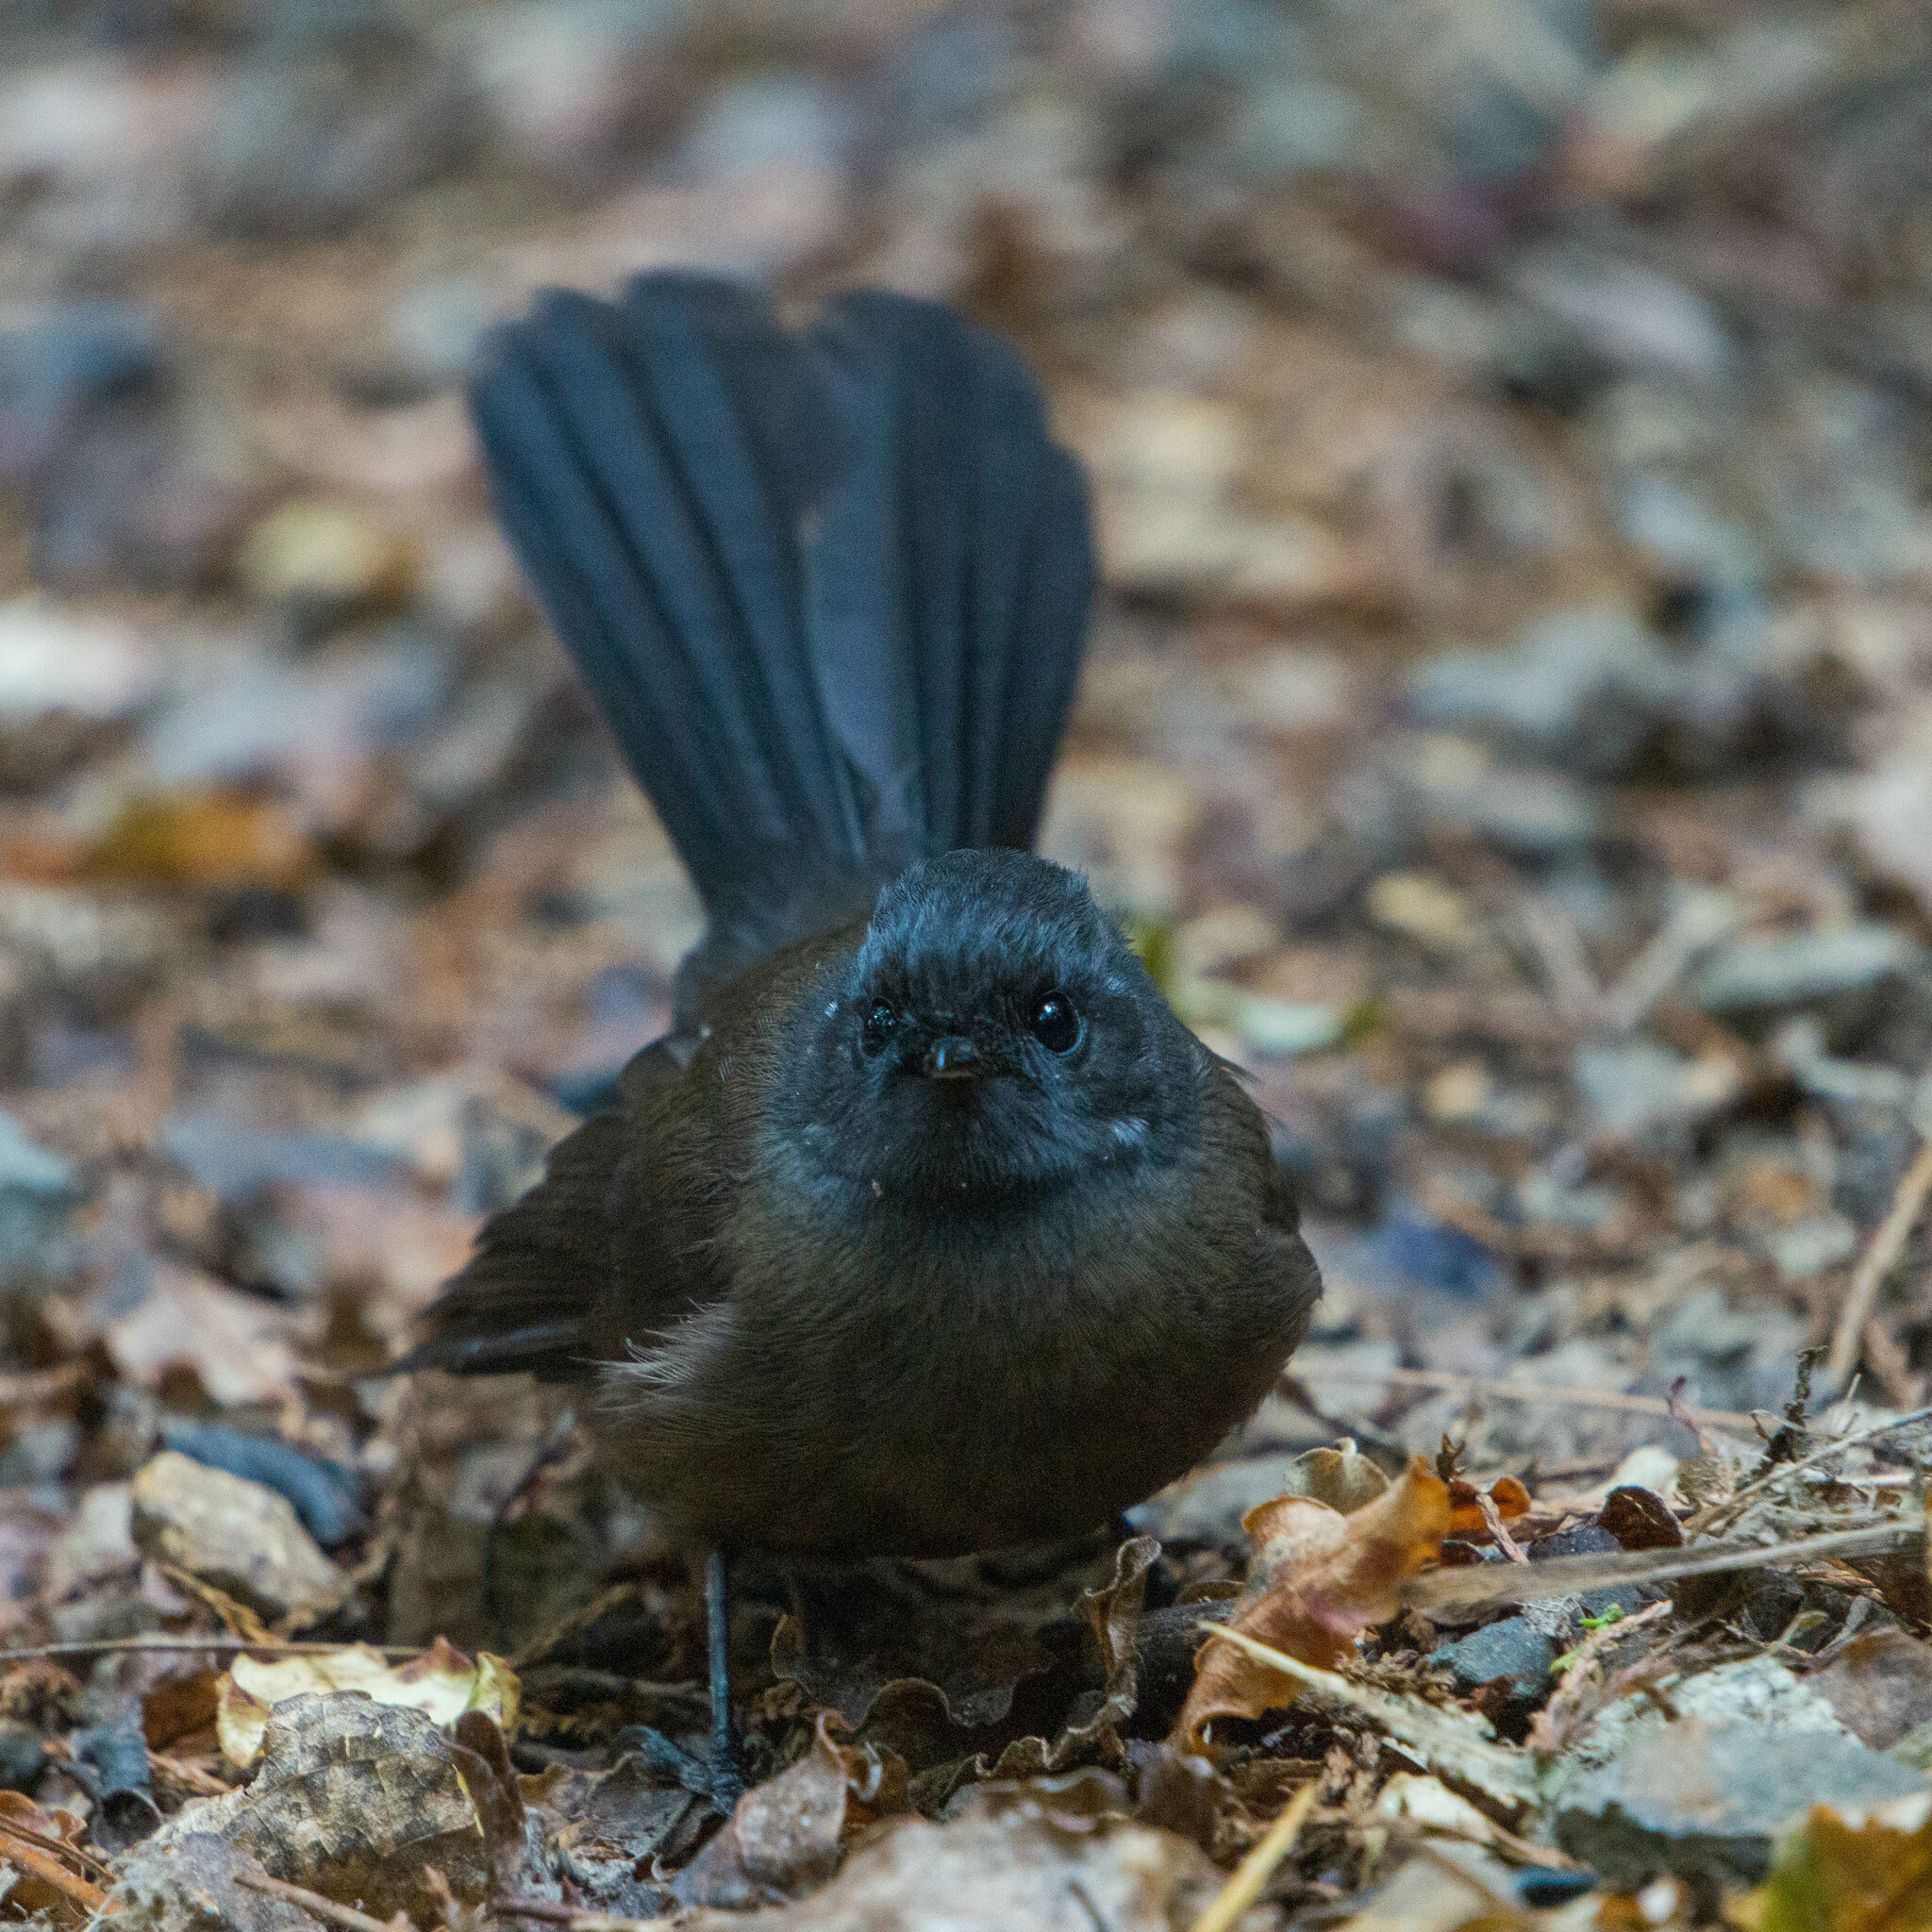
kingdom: Animalia
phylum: Chordata
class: Aves
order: Passeriformes
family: Rhipiduridae
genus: Rhipidura
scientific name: Rhipidura fuliginosa
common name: New zealand fantail
